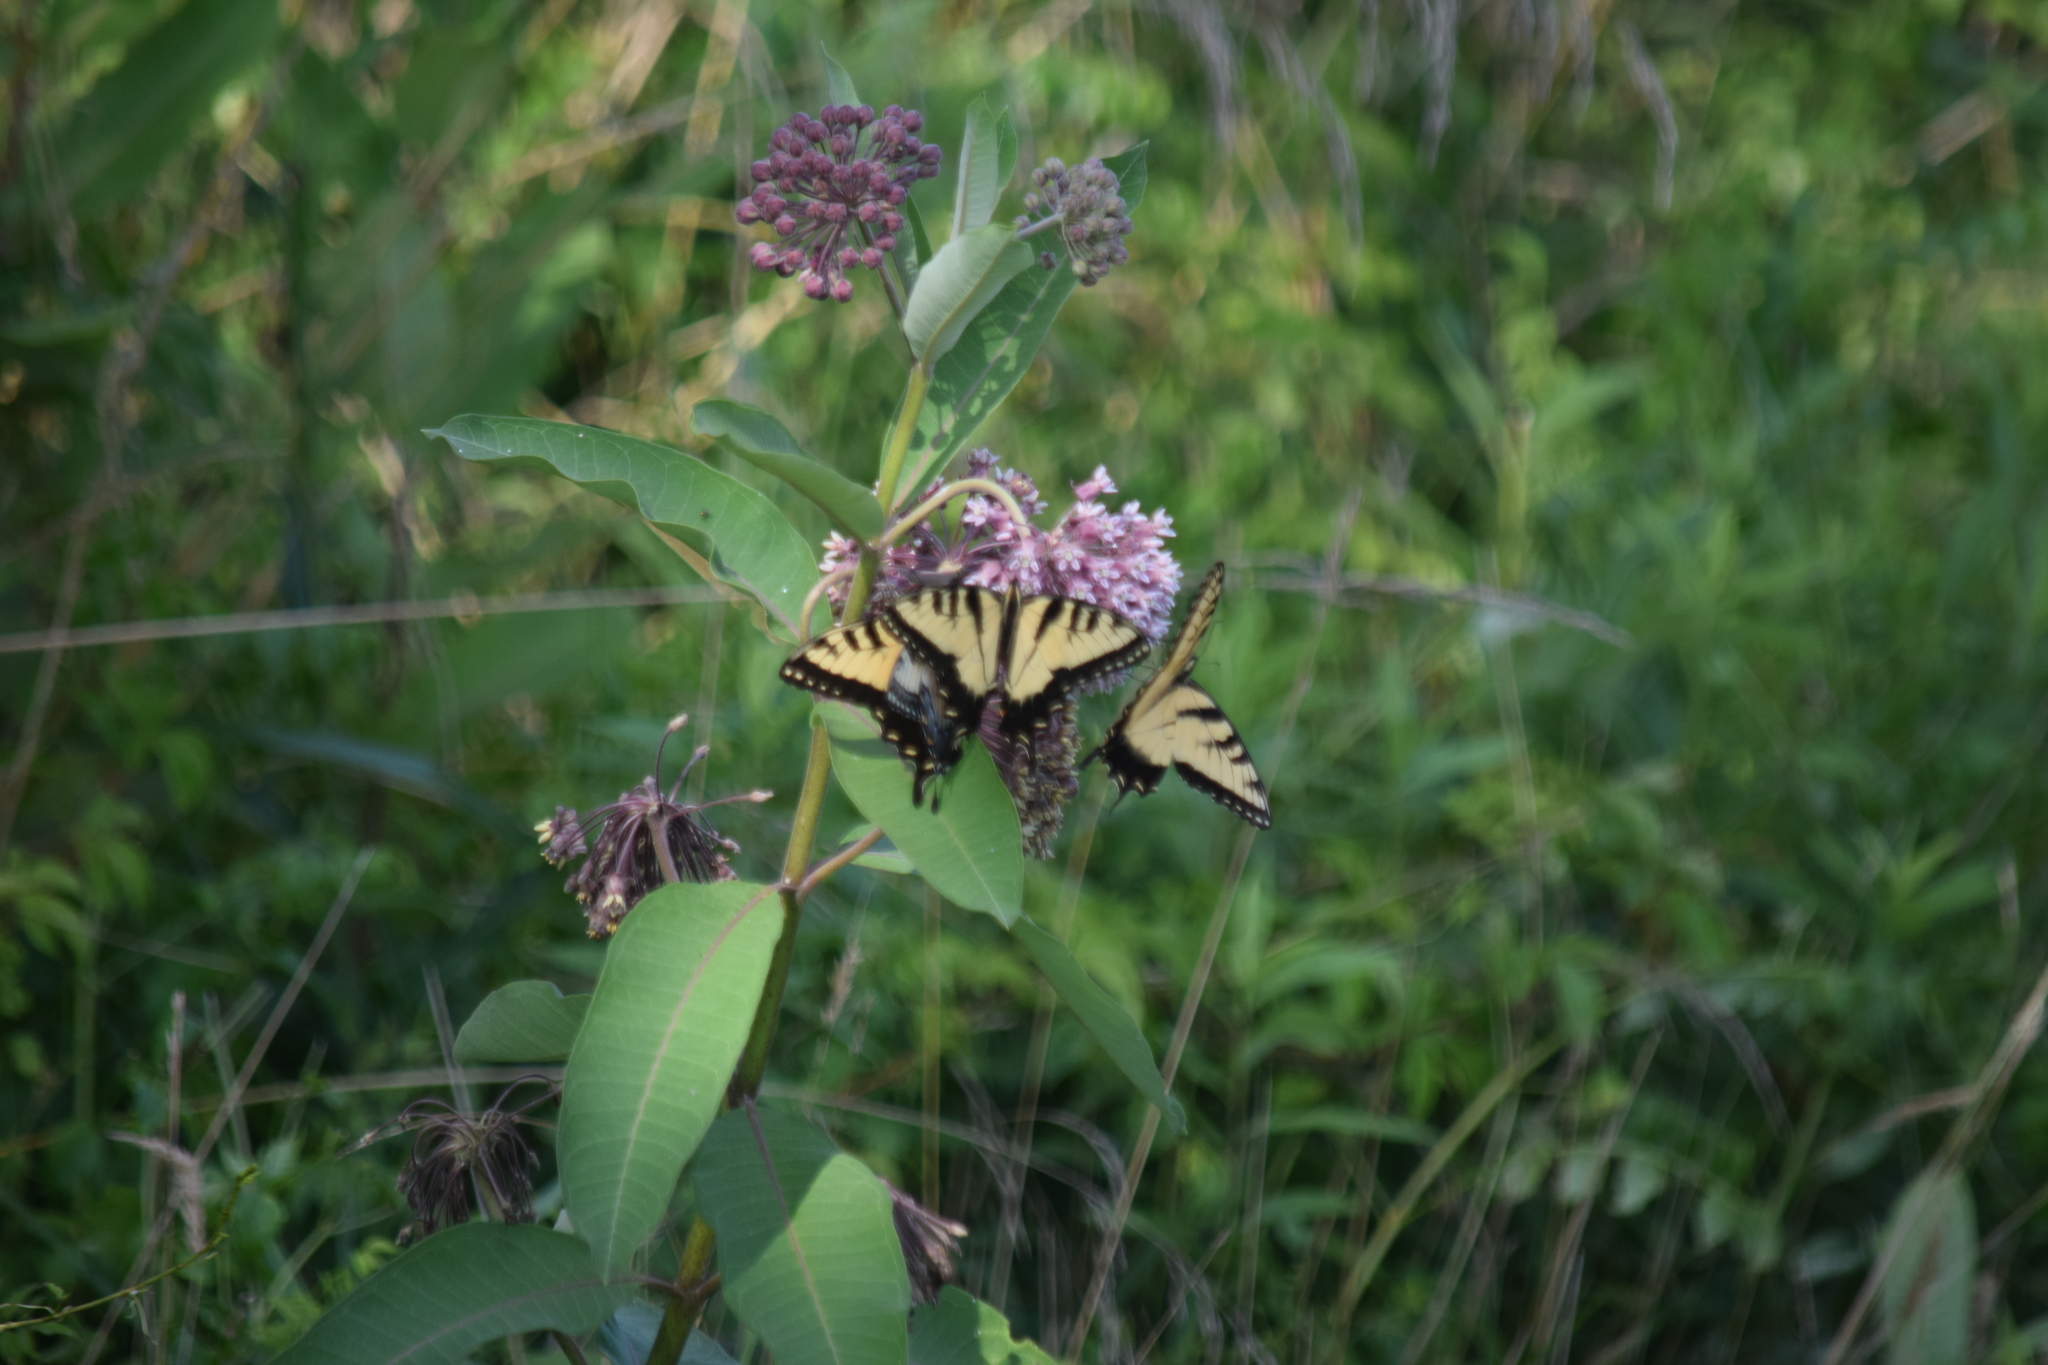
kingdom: Animalia
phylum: Arthropoda
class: Insecta
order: Lepidoptera
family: Papilionidae
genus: Papilio
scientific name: Papilio glaucus
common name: Tiger swallowtail
